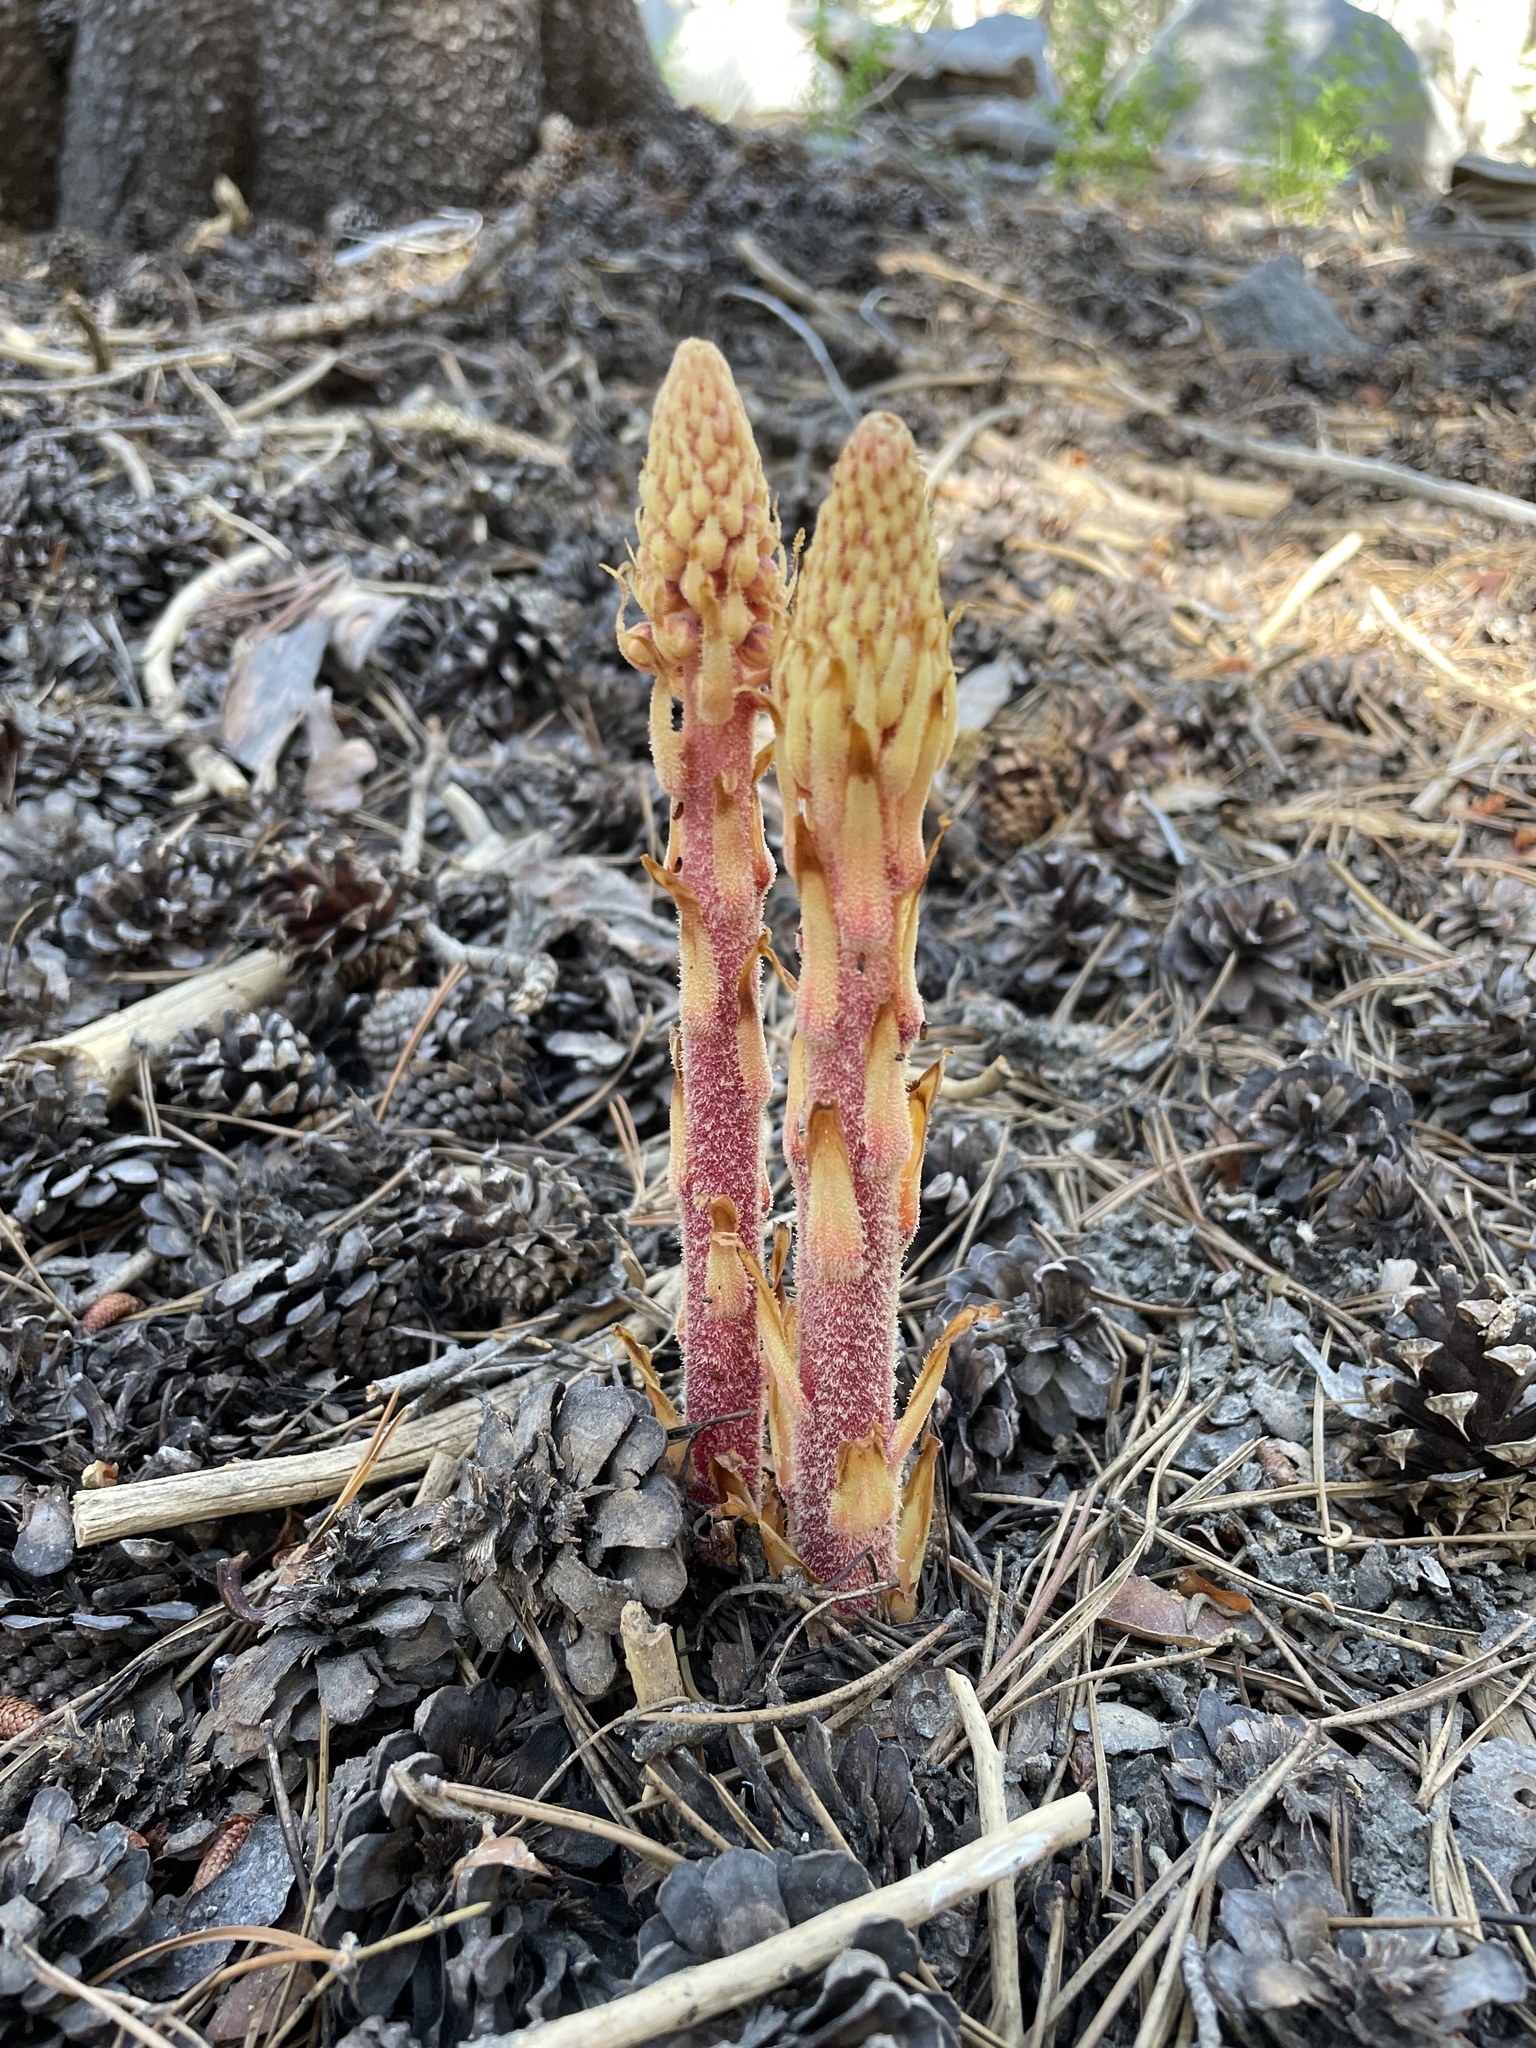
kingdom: Plantae
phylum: Tracheophyta
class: Magnoliopsida
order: Ericales
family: Ericaceae
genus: Pterospora
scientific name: Pterospora andromedea
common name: Giant bird's-nest
